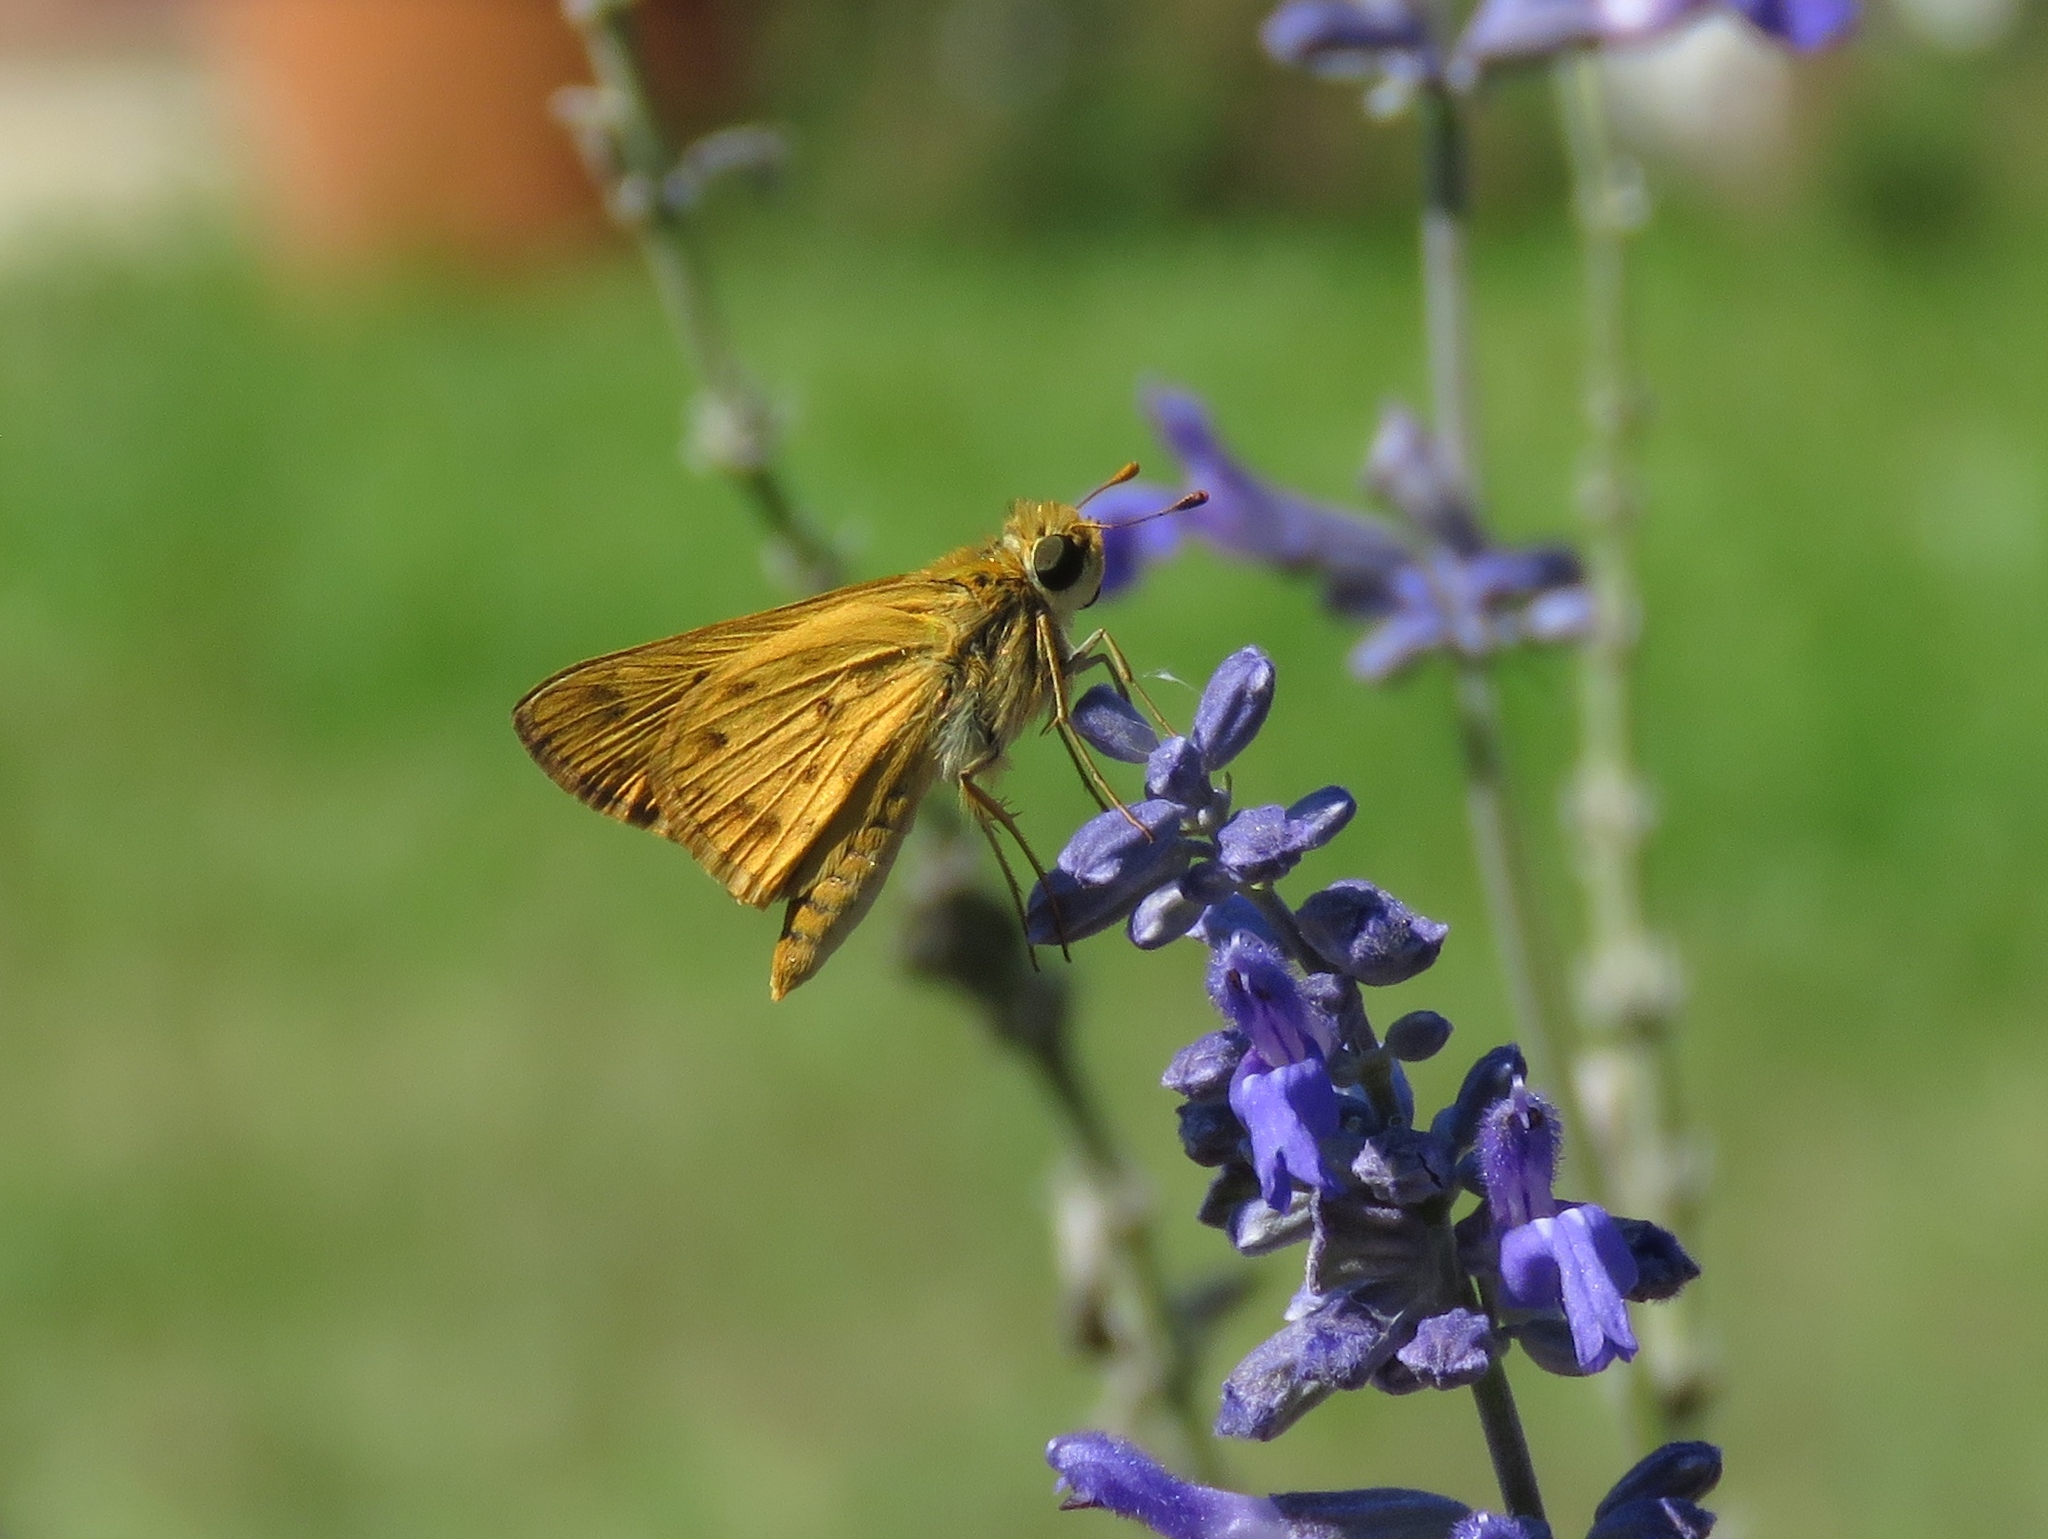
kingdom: Animalia
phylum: Arthropoda
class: Insecta
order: Lepidoptera
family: Hesperiidae
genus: Hylephila
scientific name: Hylephila phyleus
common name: Fiery skipper
